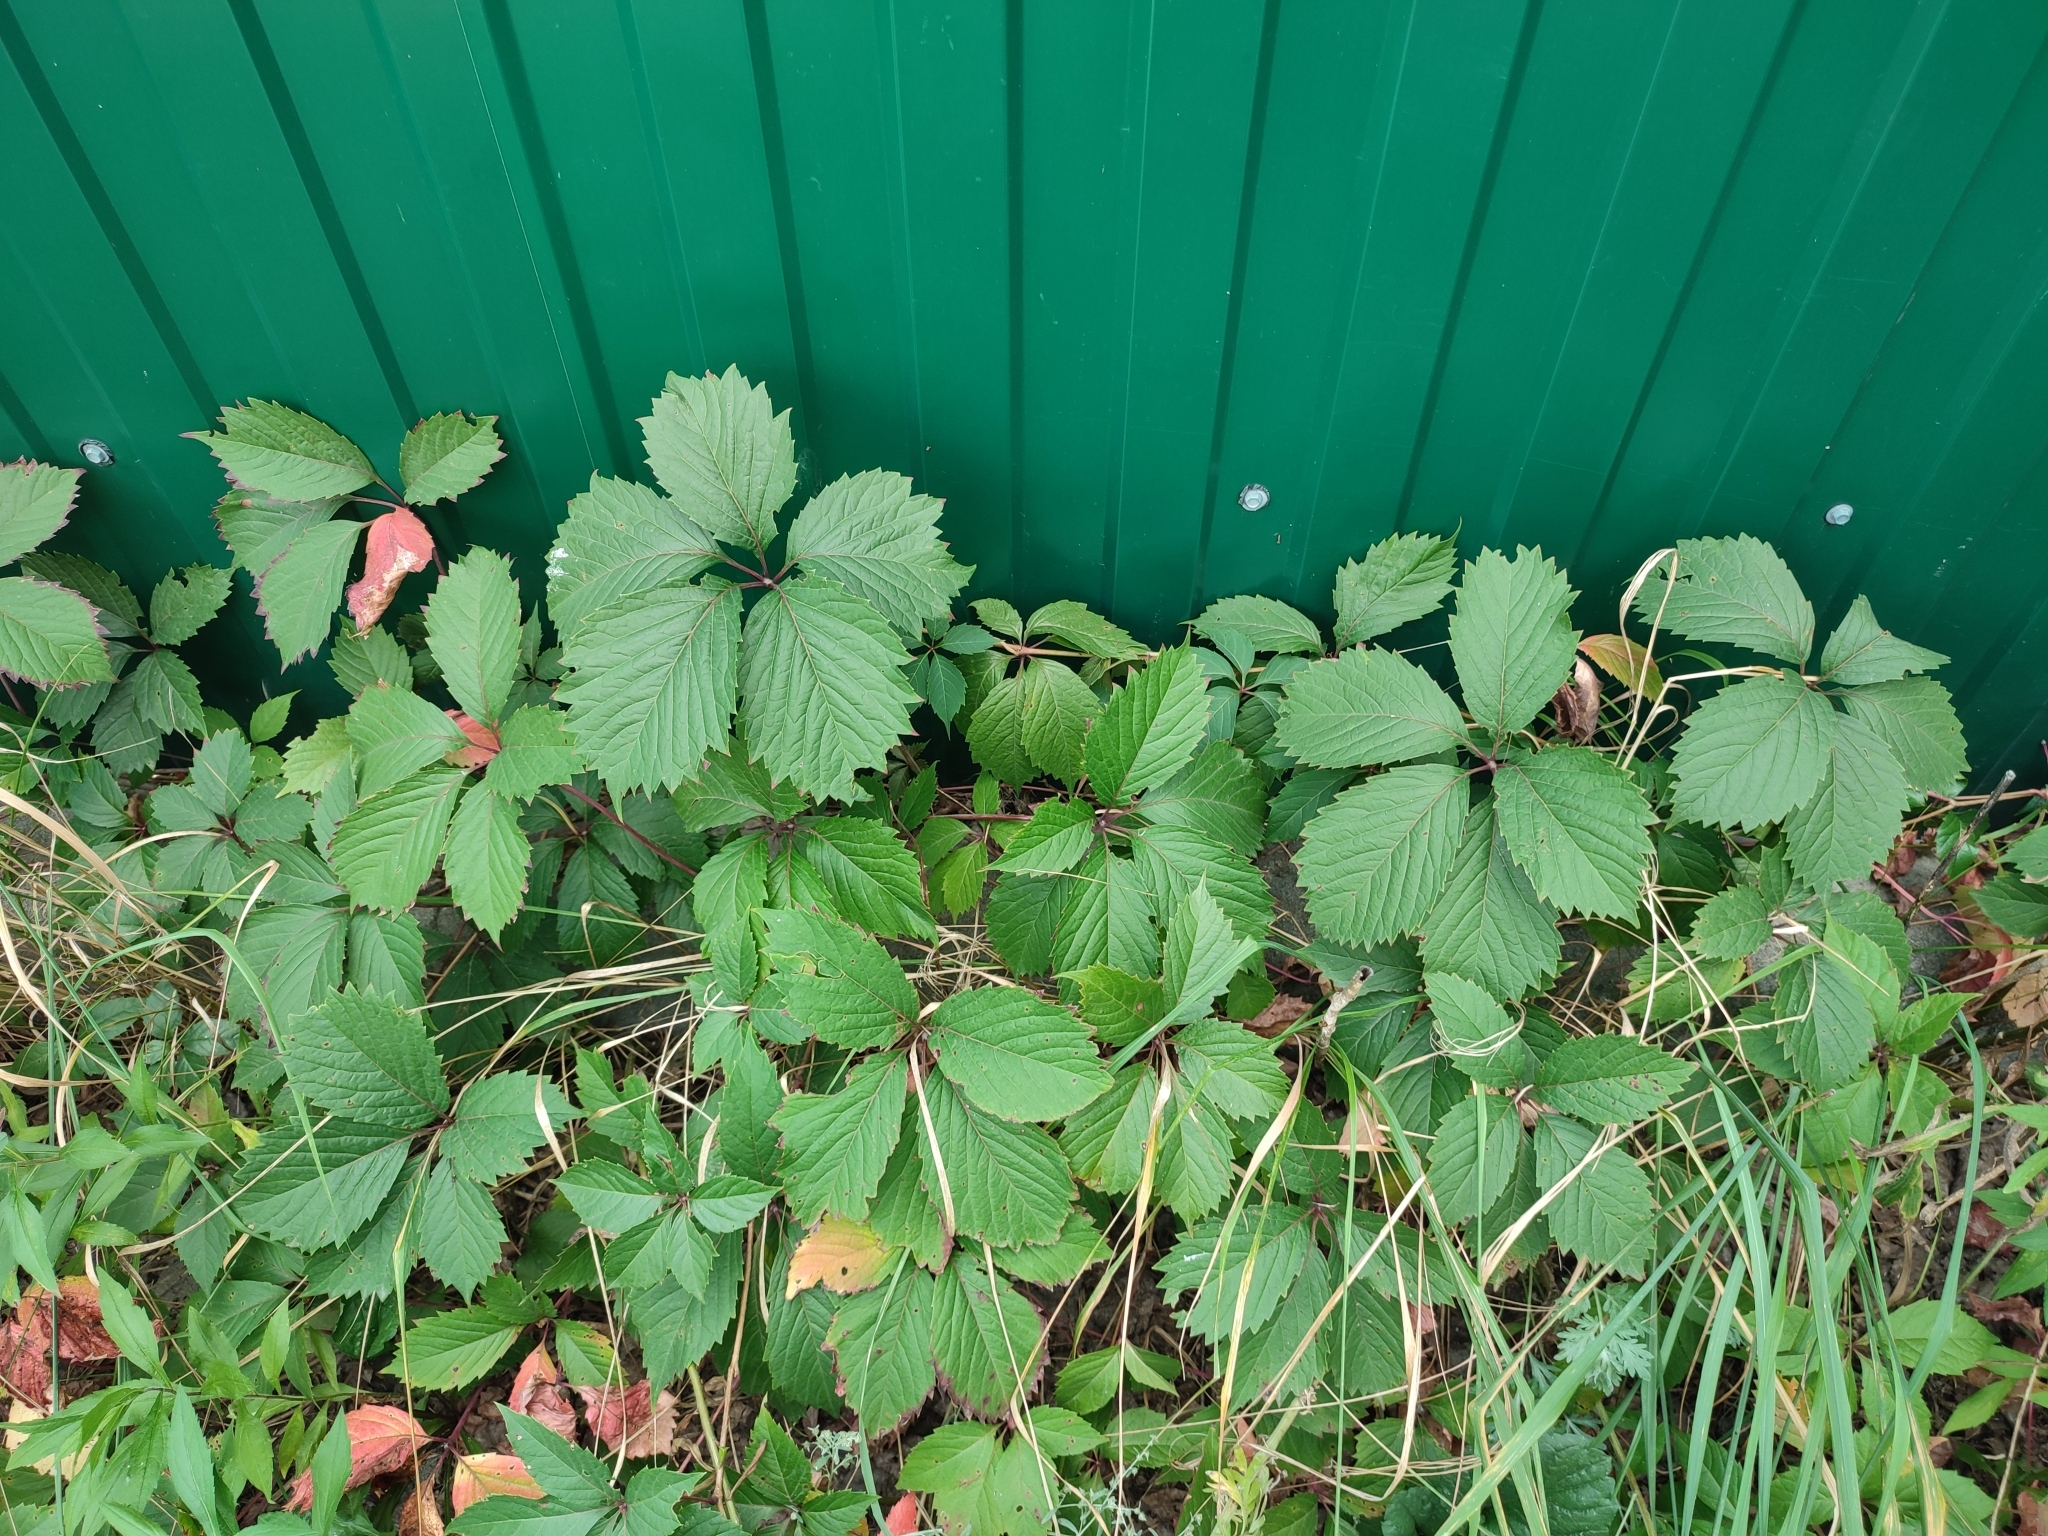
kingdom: Plantae
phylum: Tracheophyta
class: Magnoliopsida
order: Vitales
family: Vitaceae
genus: Parthenocissus
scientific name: Parthenocissus inserta
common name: False virginia-creeper
